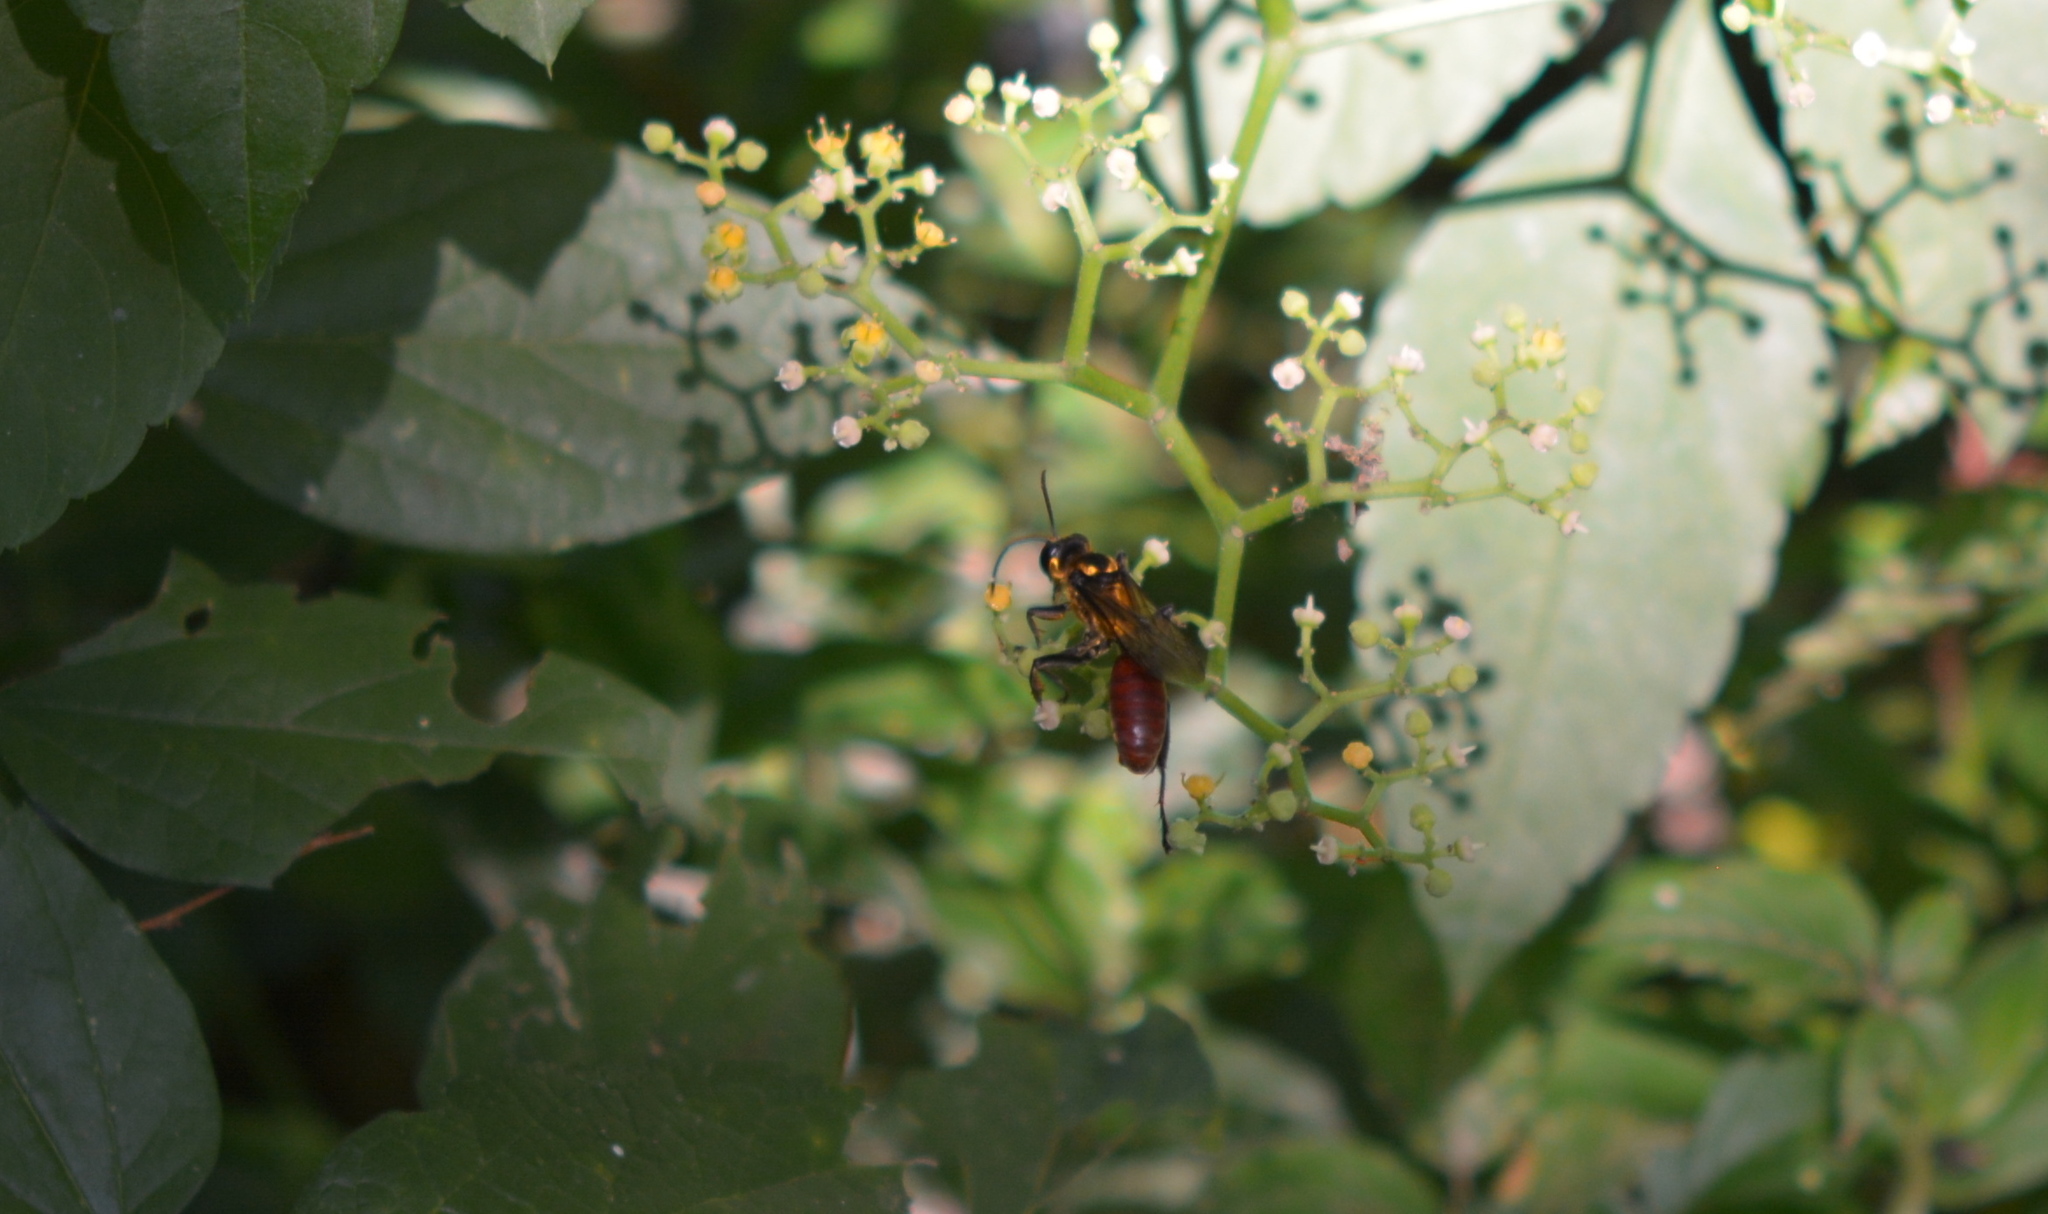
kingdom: Animalia
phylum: Arthropoda
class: Insecta
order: Hymenoptera
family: Sphecidae
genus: Sphex
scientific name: Sphex habenus
